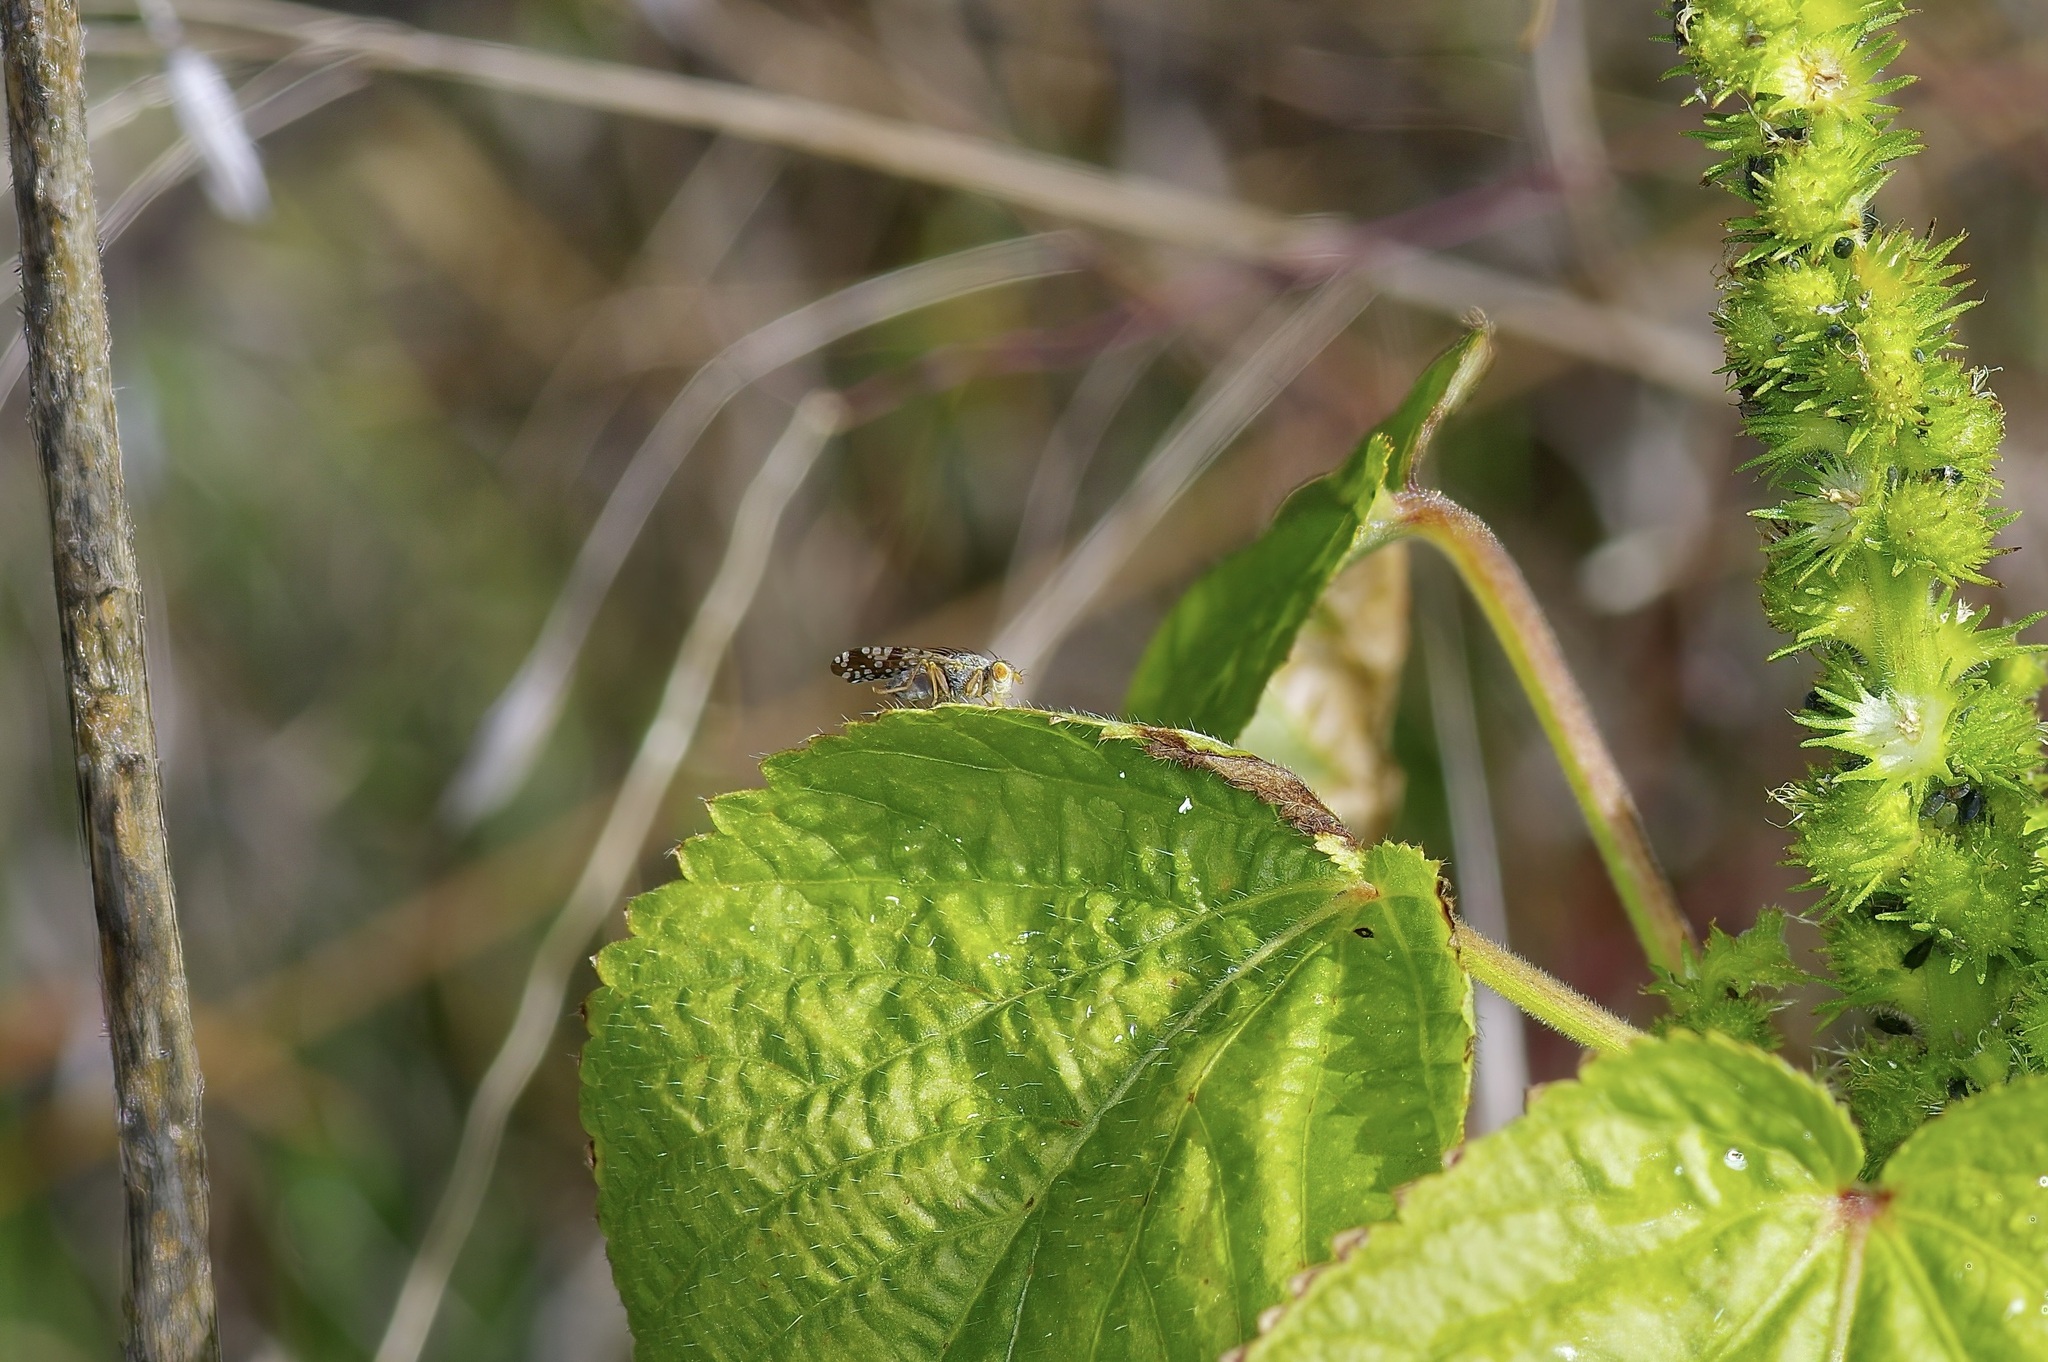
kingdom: Animalia
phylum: Arthropoda
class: Insecta
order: Diptera
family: Tephritidae
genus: Neotephritis
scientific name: Neotephritis finalis
